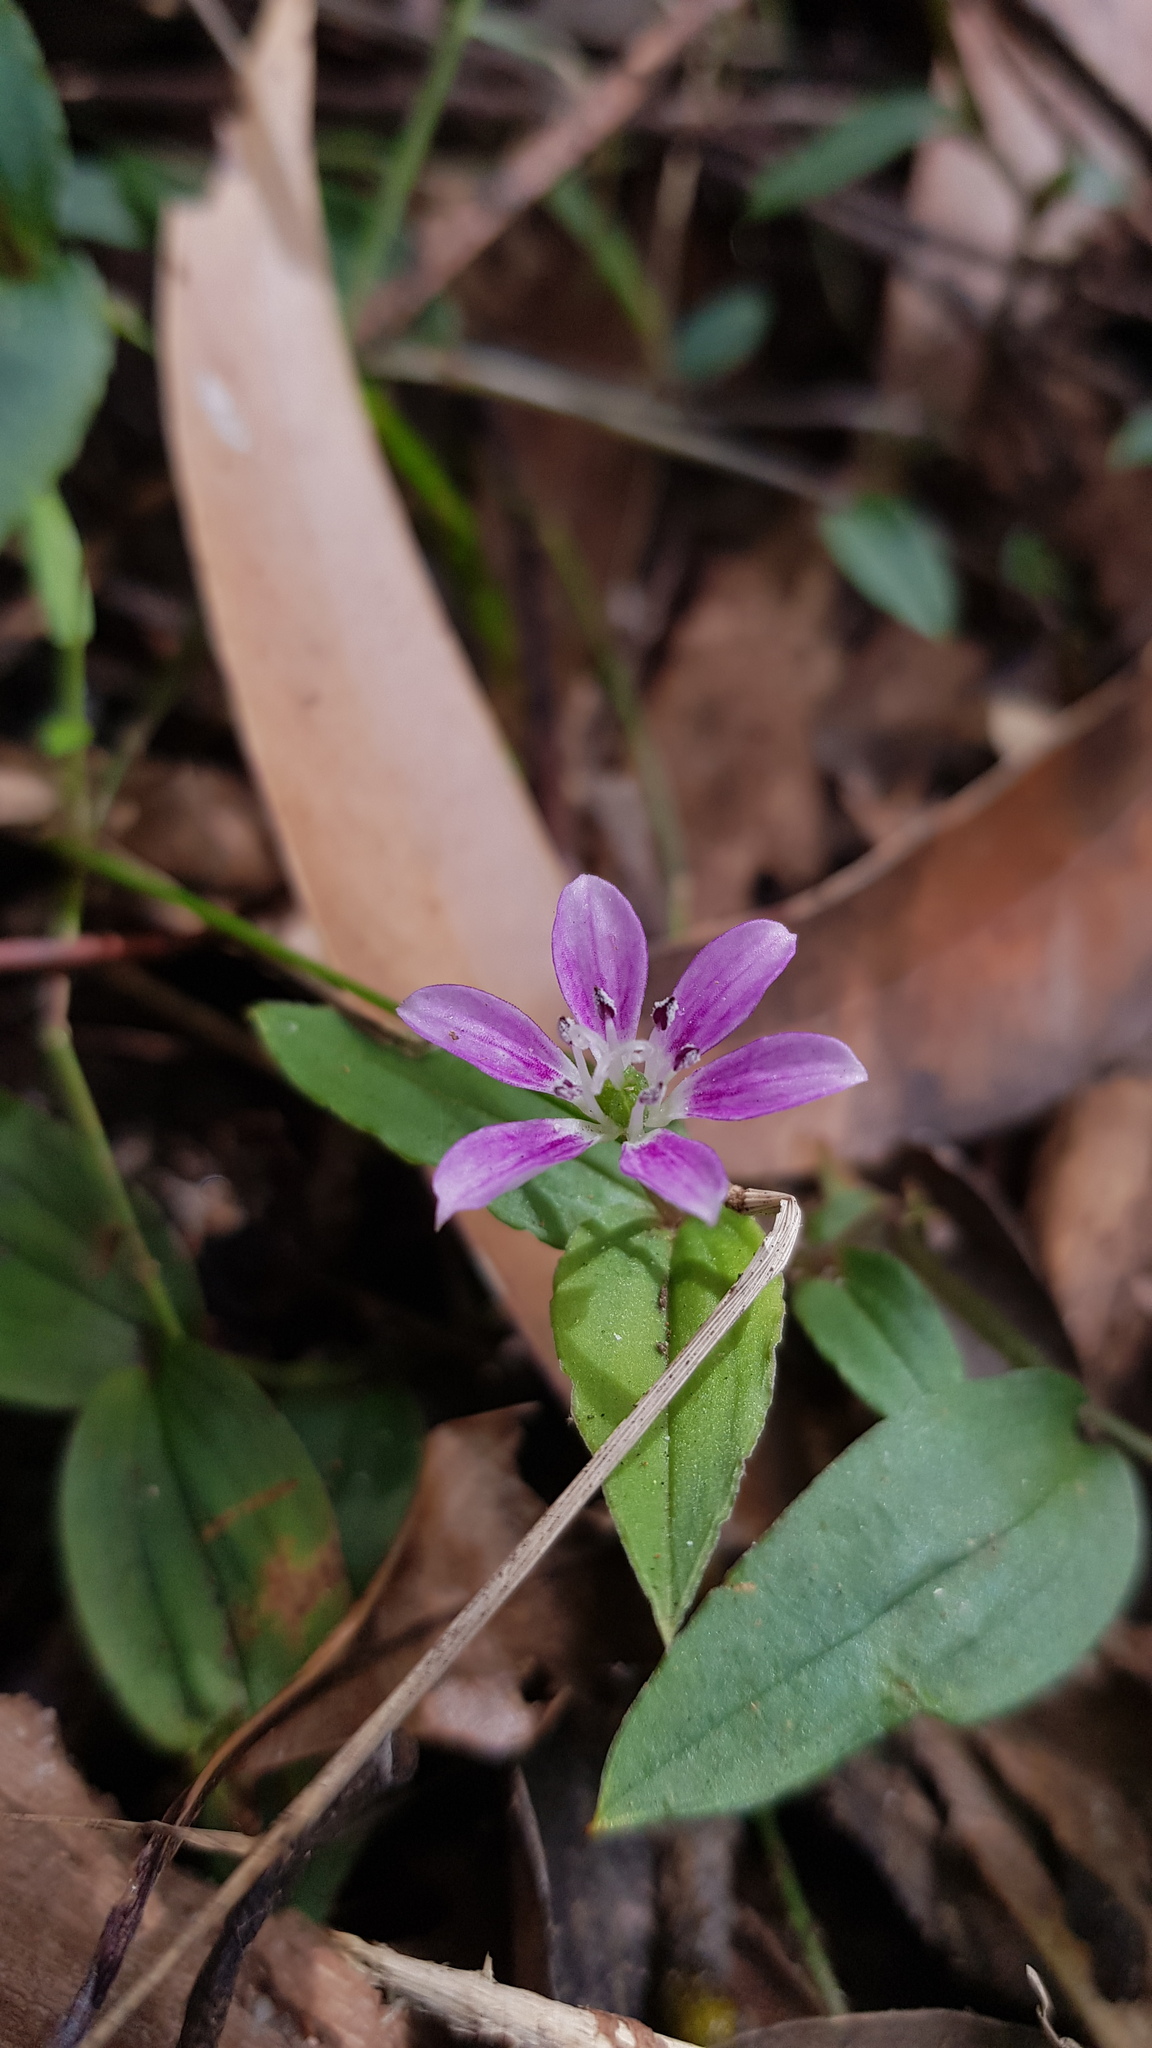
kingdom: Plantae
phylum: Tracheophyta
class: Liliopsida
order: Liliales
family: Colchicaceae
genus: Schelhammera
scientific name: Schelhammera undulata
